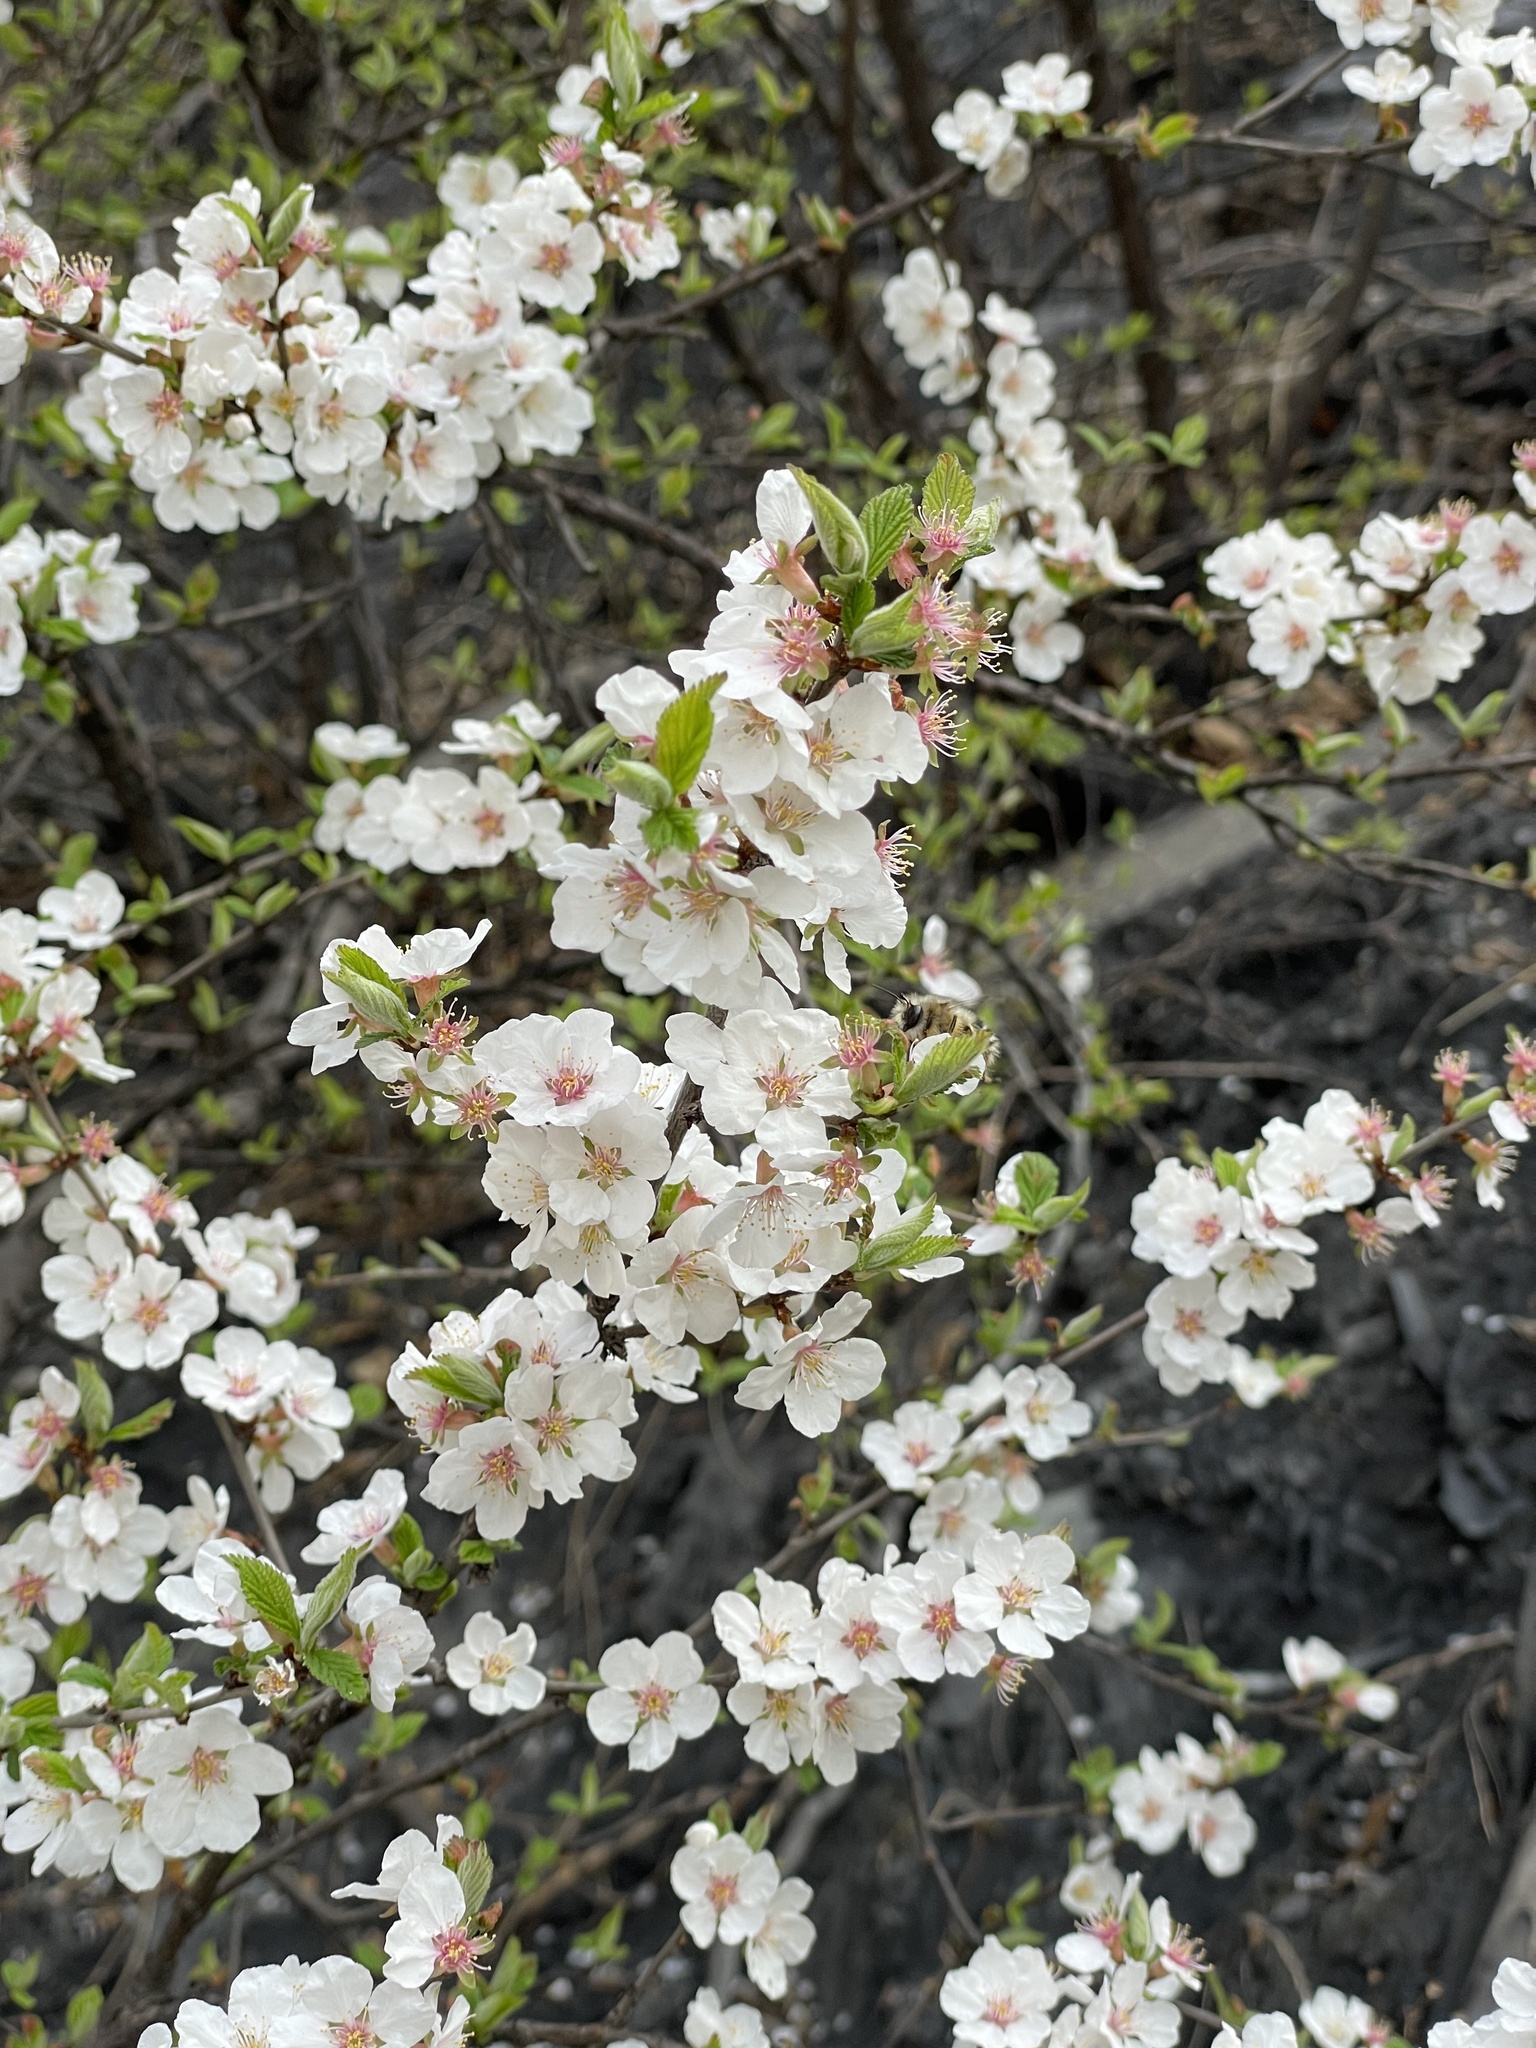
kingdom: Plantae
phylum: Tracheophyta
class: Magnoliopsida
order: Rosales
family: Rosaceae
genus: Prunus
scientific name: Prunus tomentosa
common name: Nanking cherry
